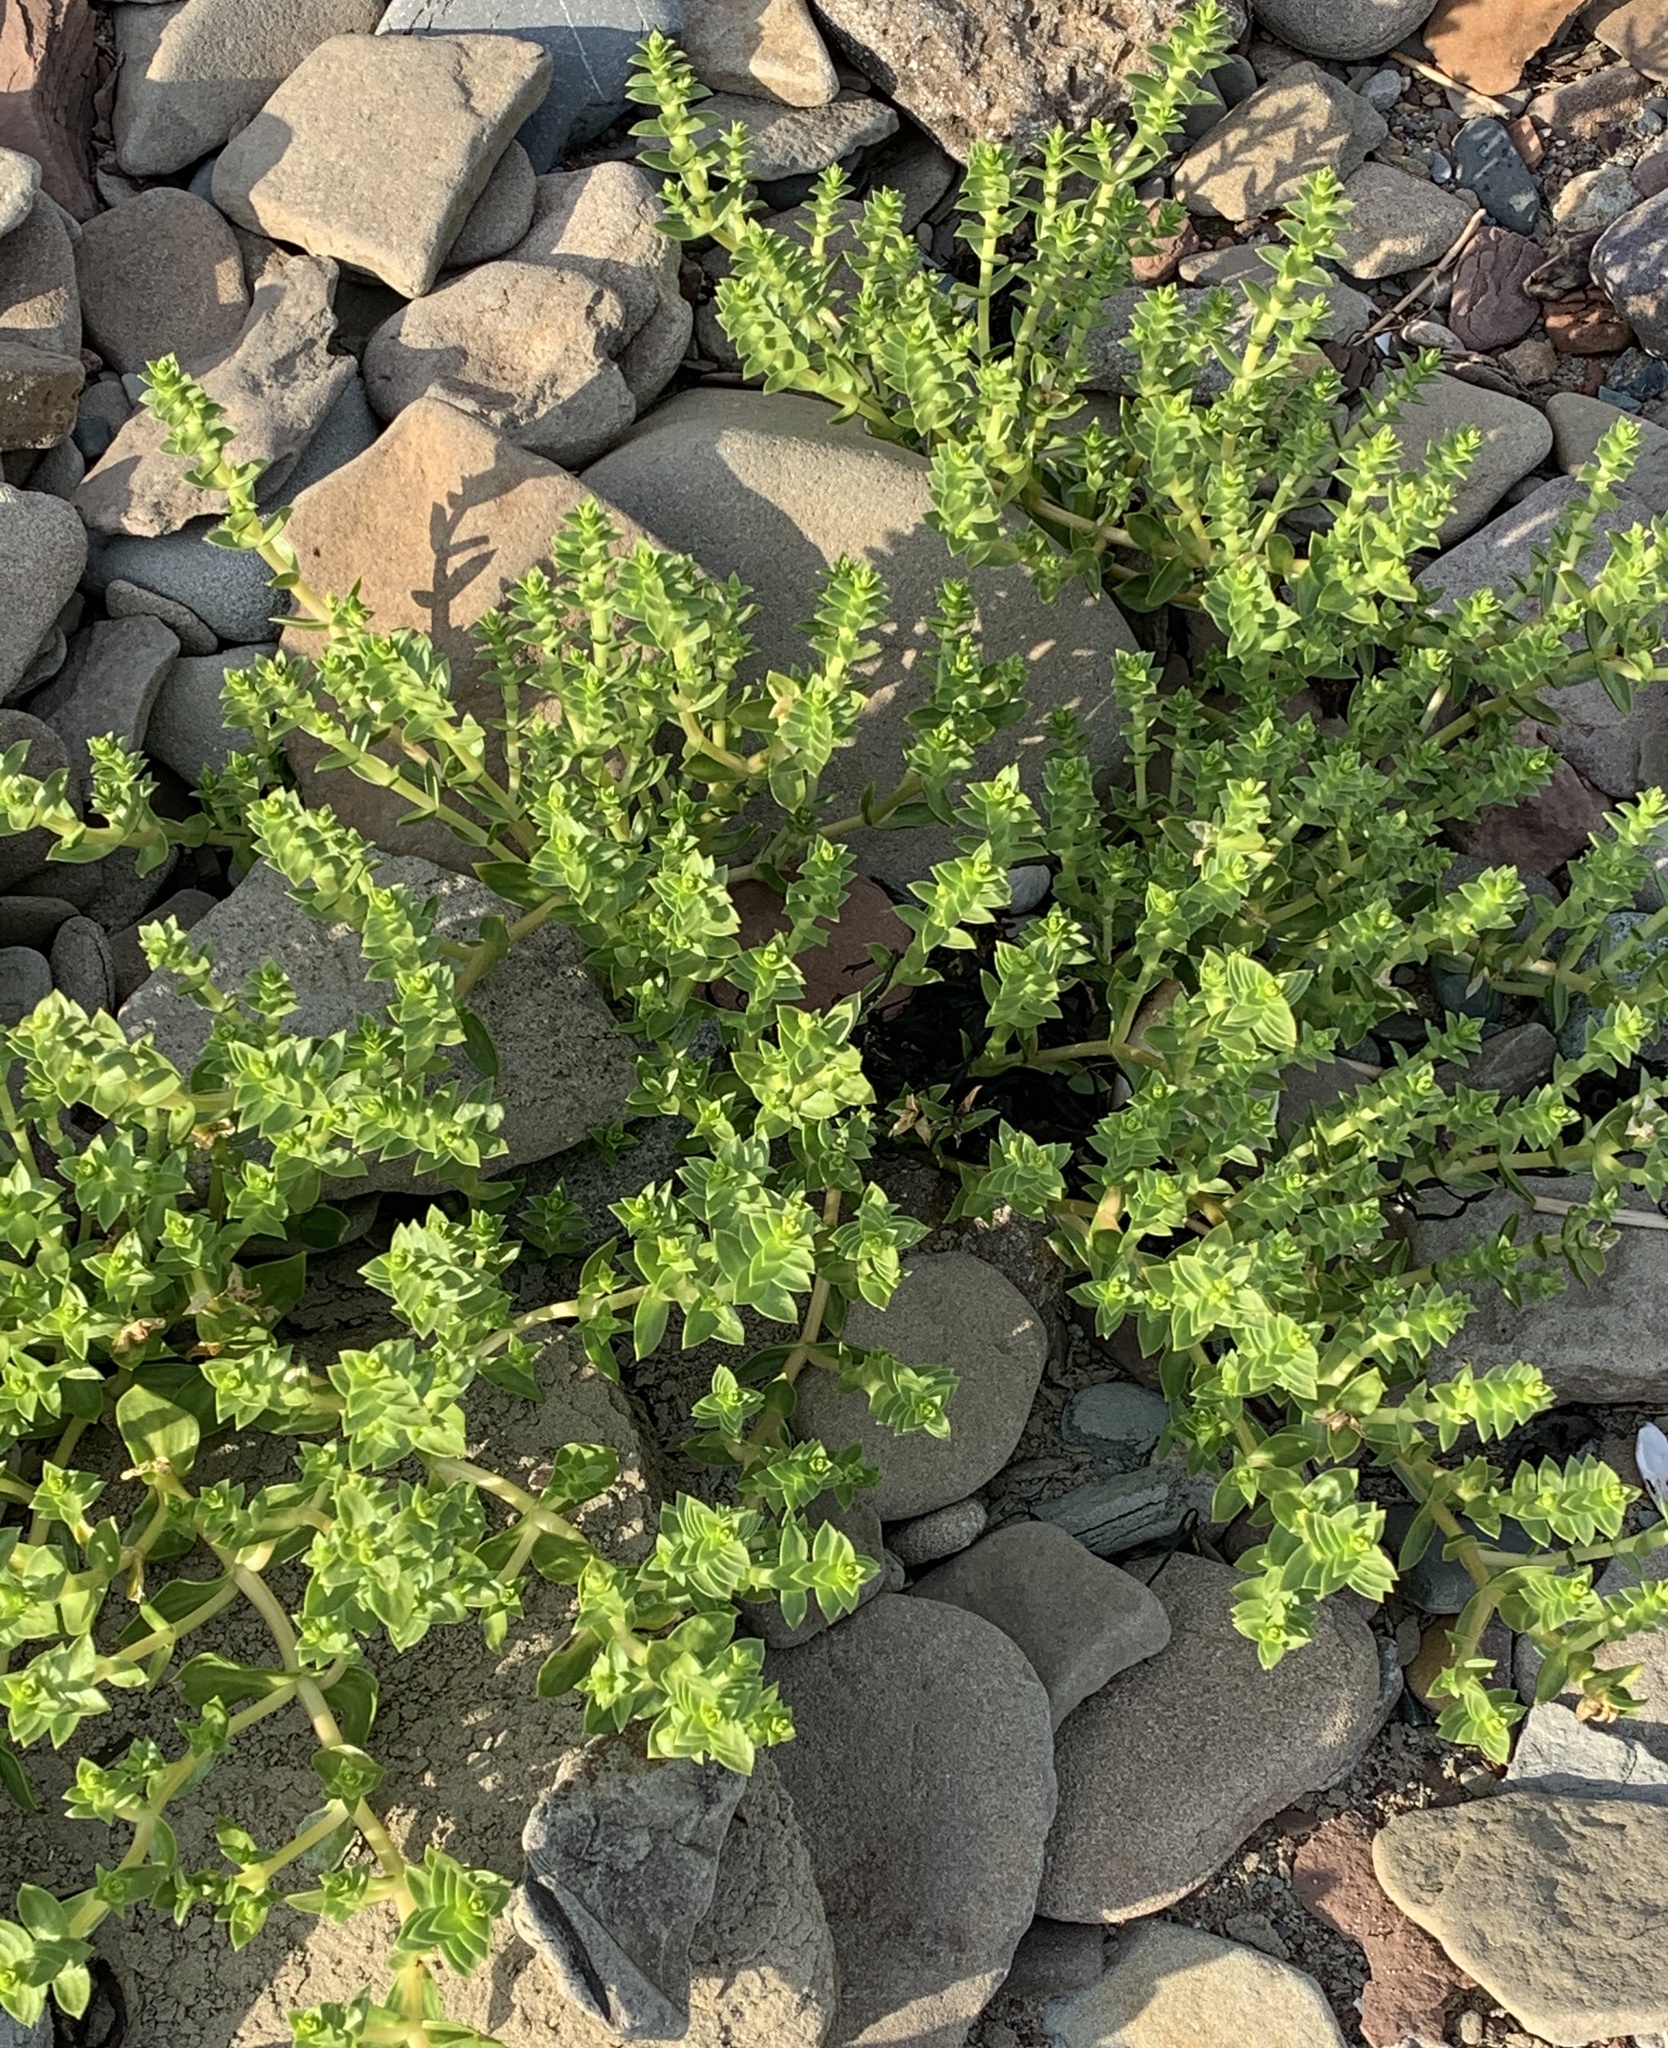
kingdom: Plantae
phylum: Tracheophyta
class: Magnoliopsida
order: Caryophyllales
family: Caryophyllaceae
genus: Honckenya
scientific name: Honckenya peploides
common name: Sea sandwort
